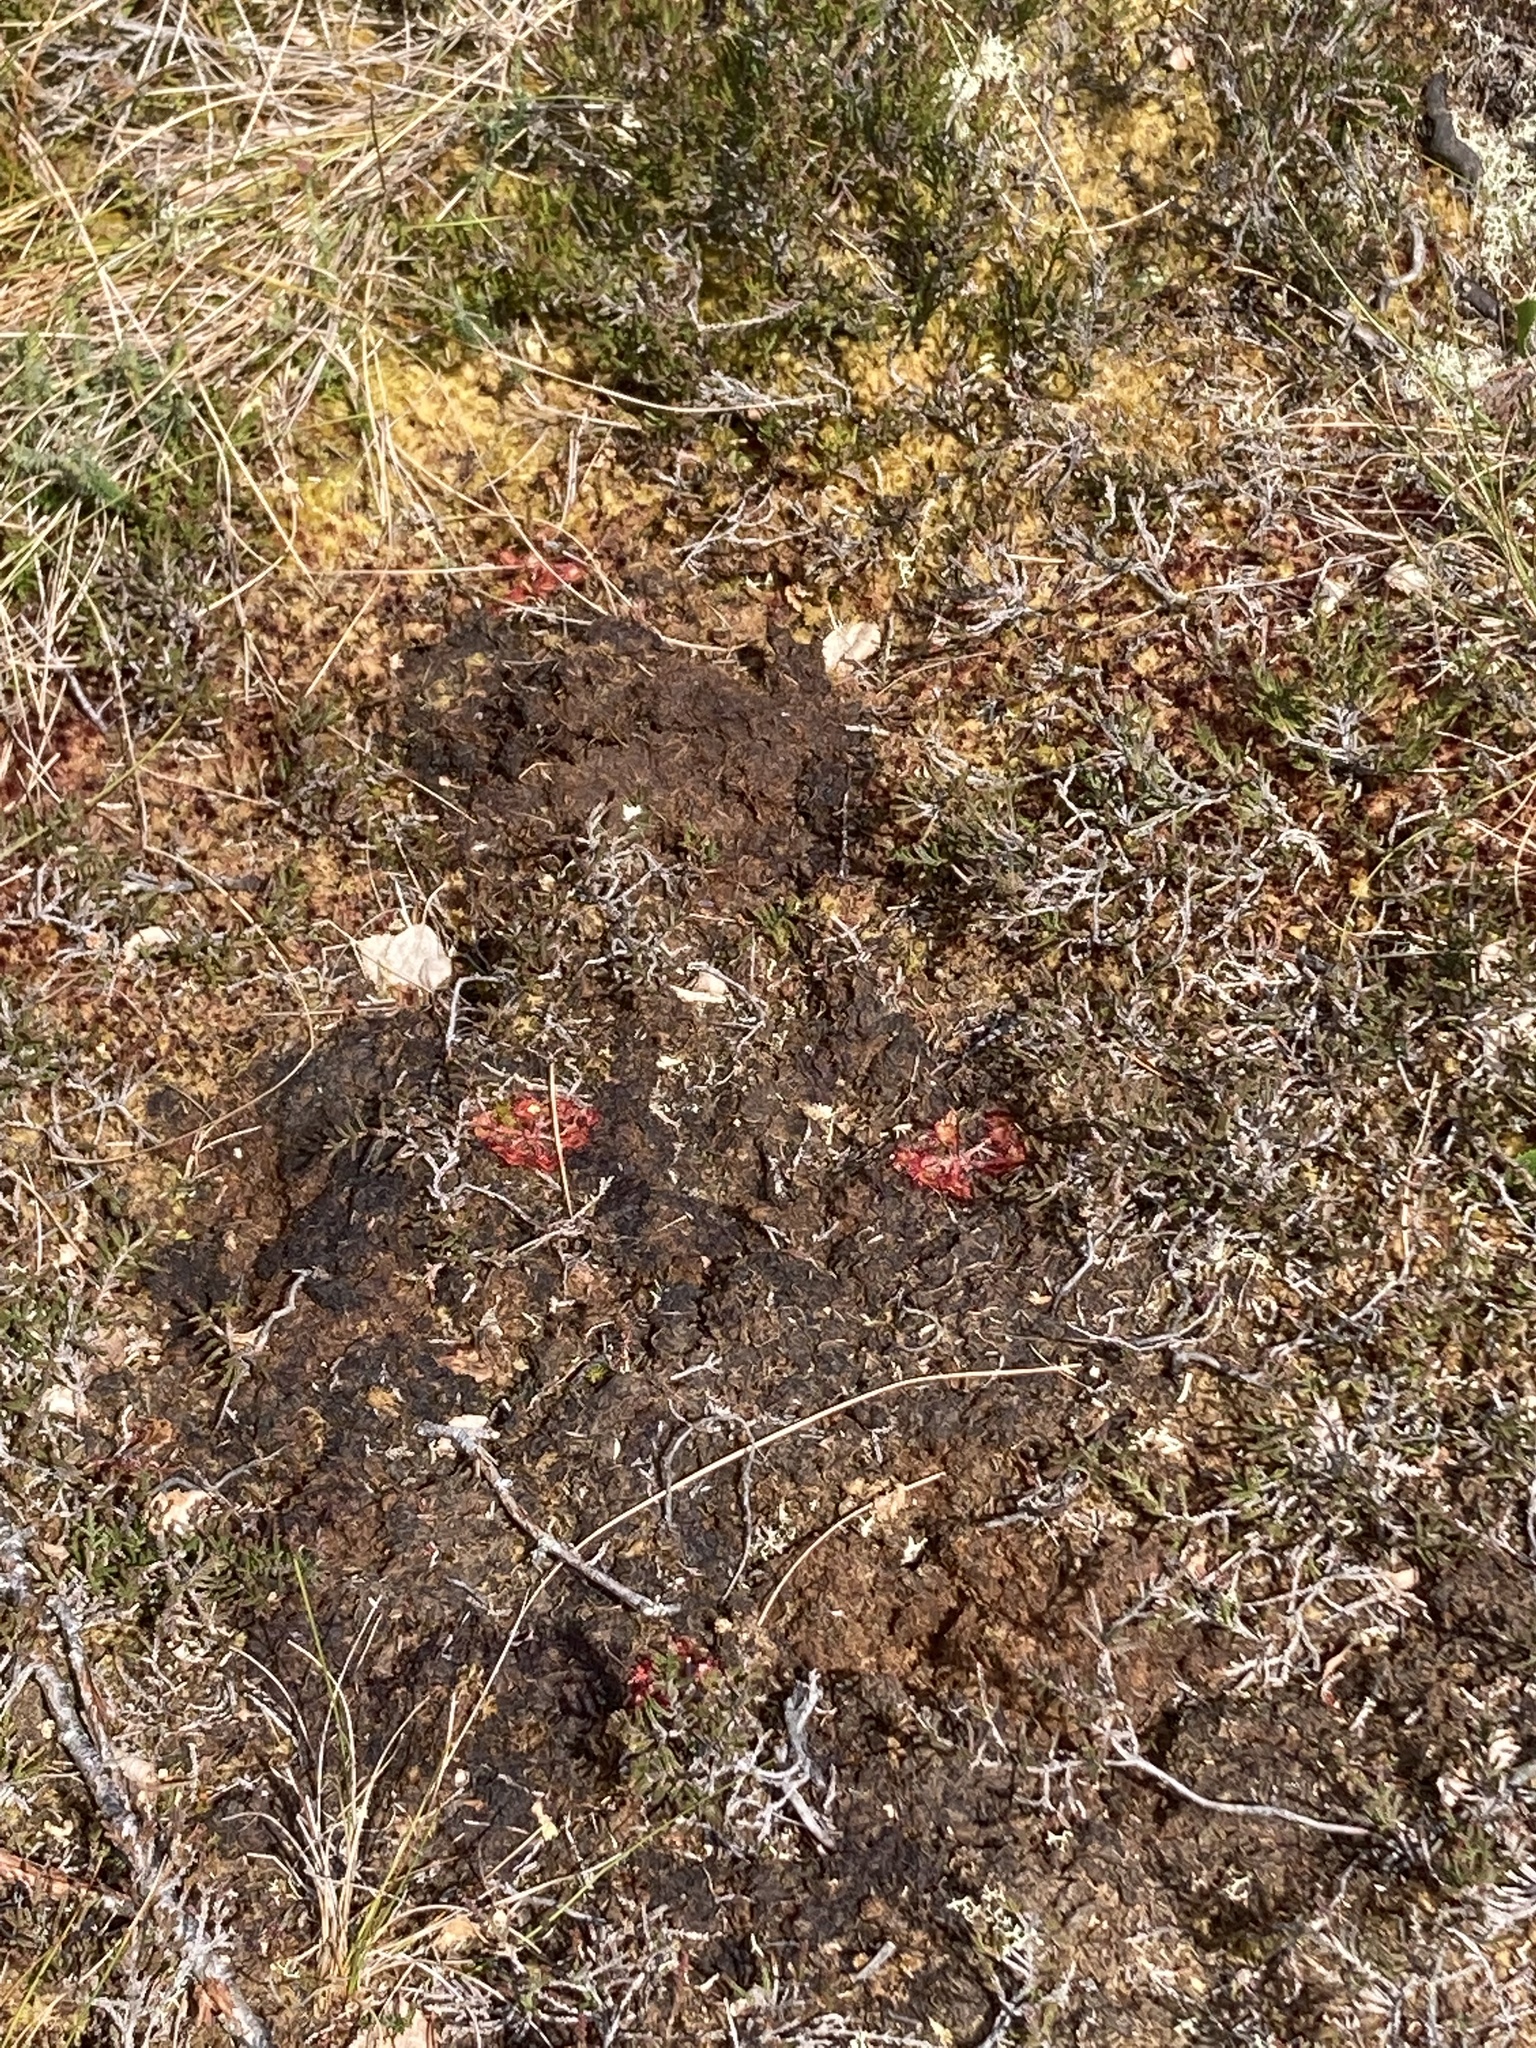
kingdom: Plantae
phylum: Tracheophyta
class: Magnoliopsida
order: Caryophyllales
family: Droseraceae
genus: Drosera
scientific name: Drosera rotundifolia
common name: Round-leaved sundew
